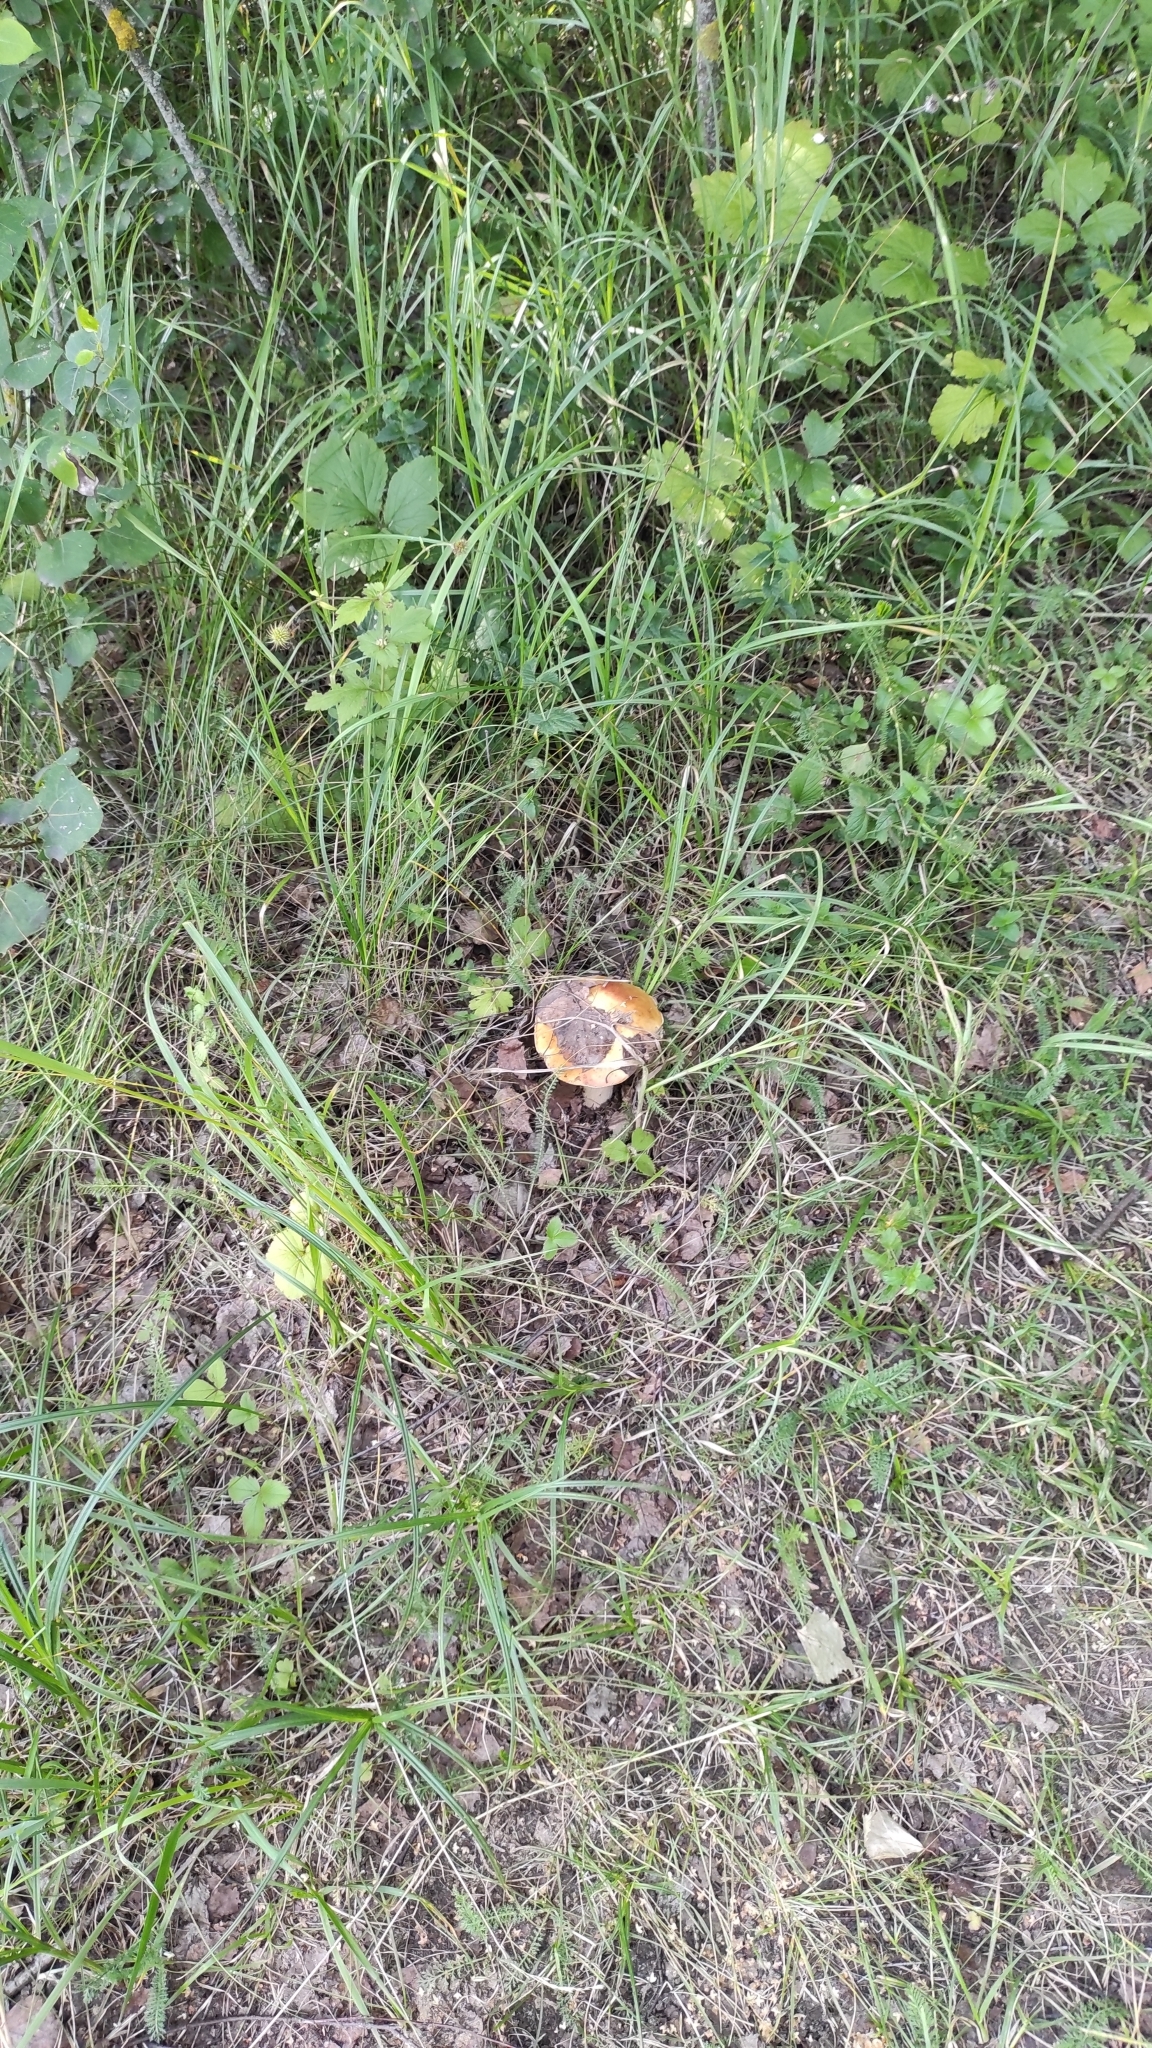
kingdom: Fungi
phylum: Basidiomycota
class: Agaricomycetes
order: Boletales
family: Boletaceae
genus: Boletus
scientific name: Boletus edulis
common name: Cep
